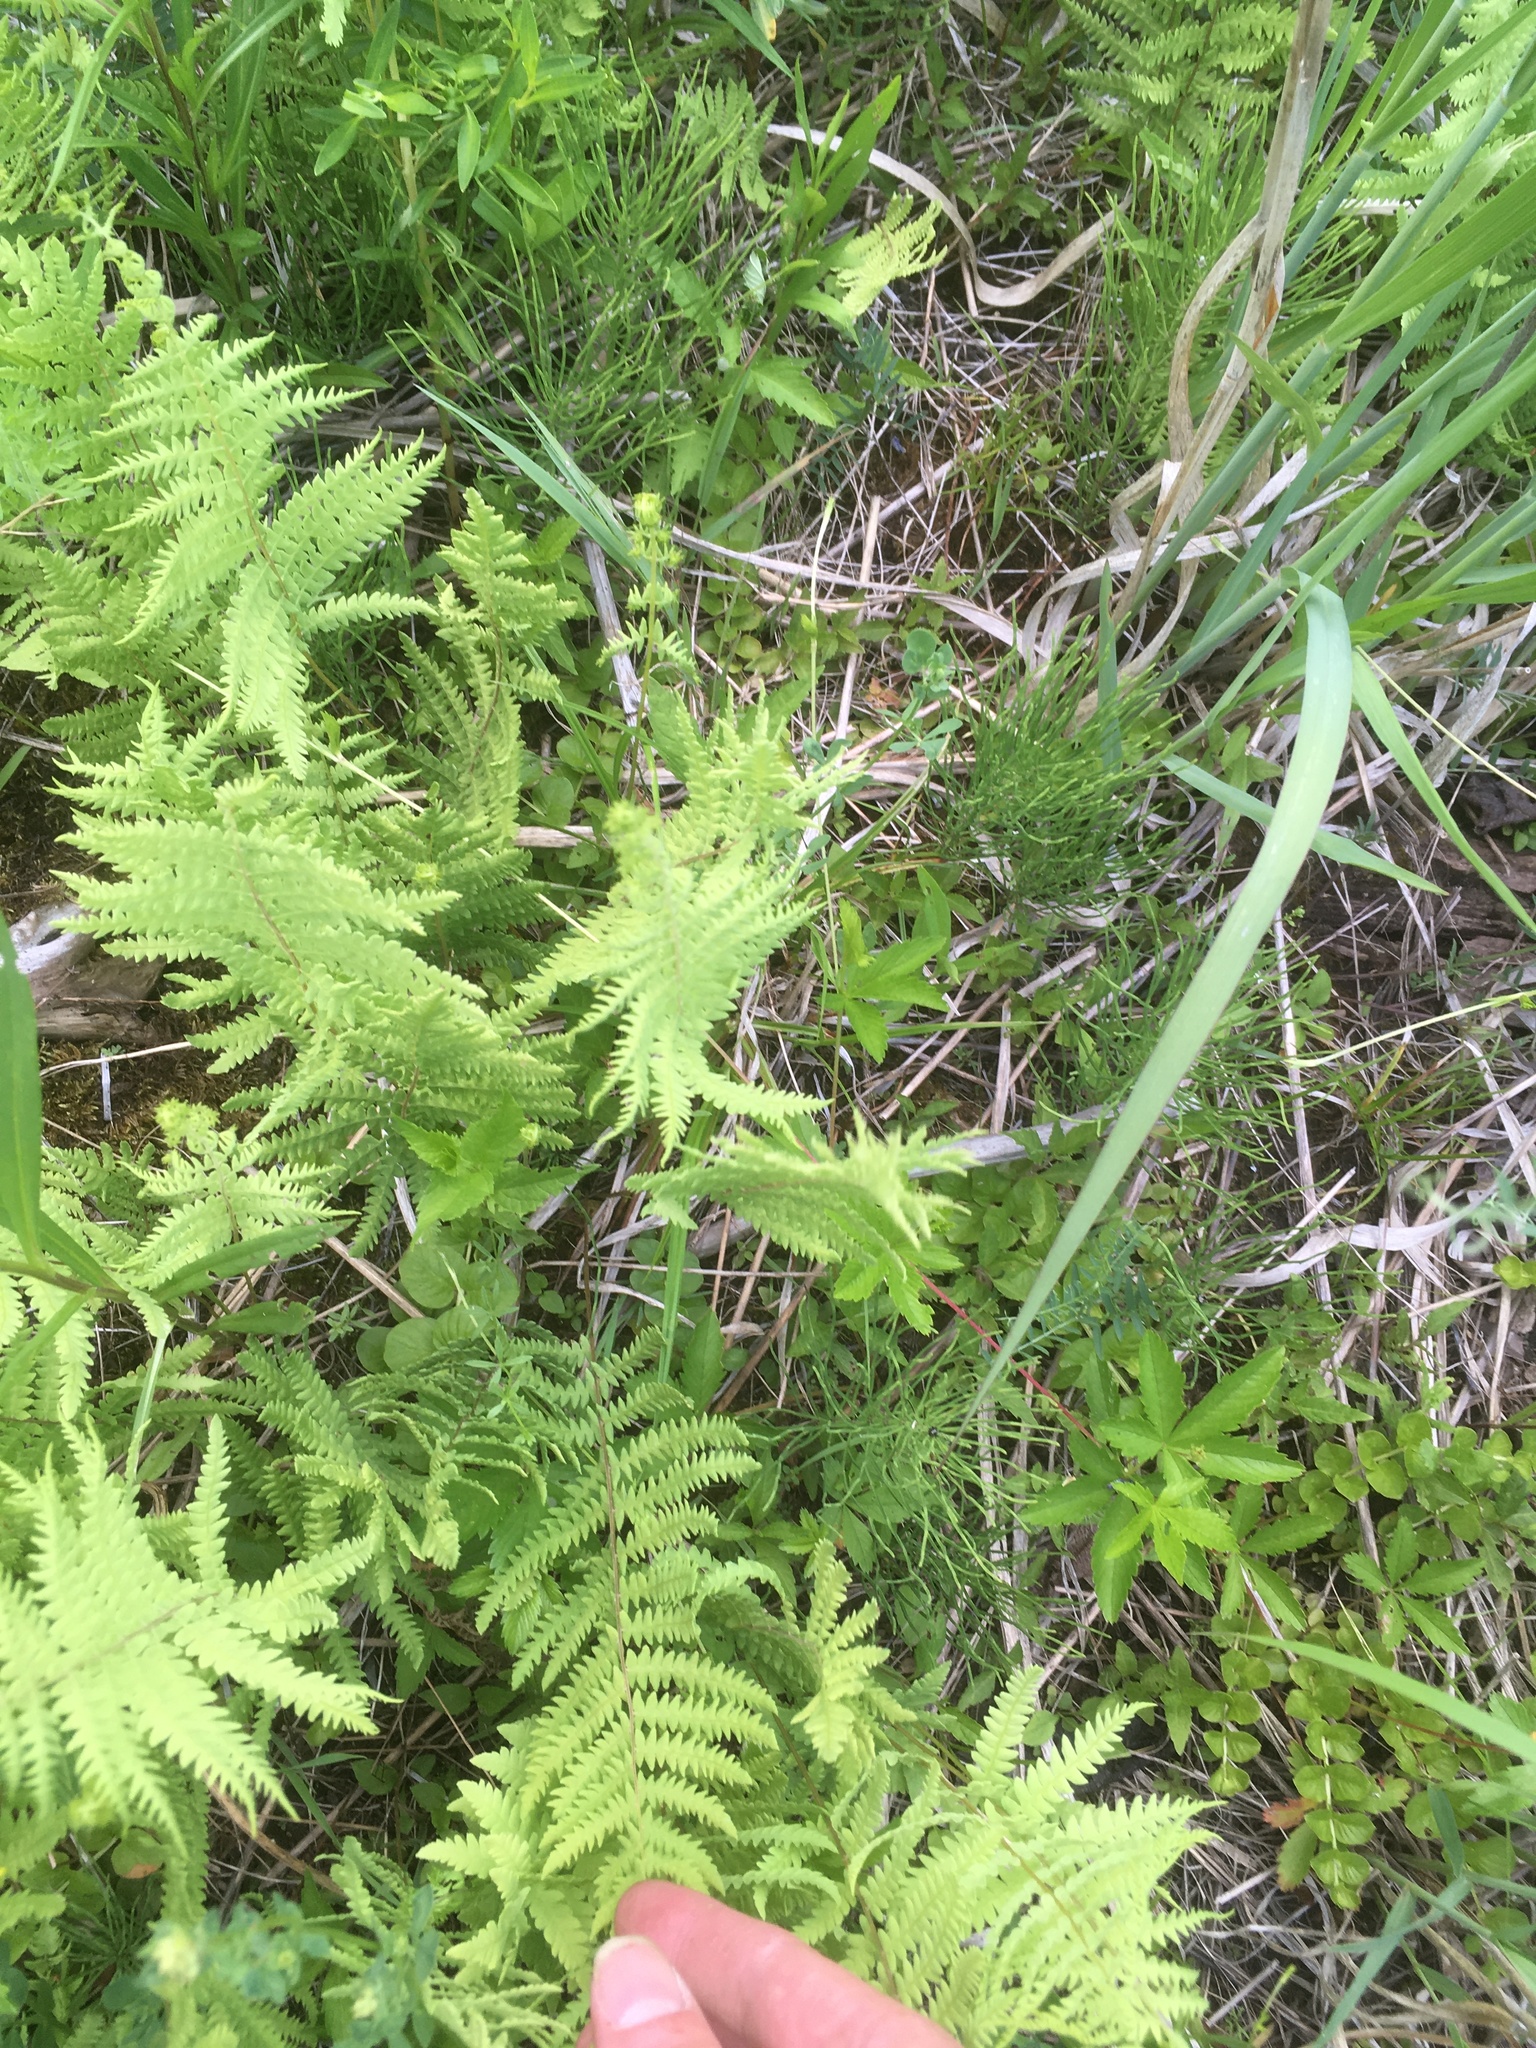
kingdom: Plantae
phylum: Tracheophyta
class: Polypodiopsida
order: Polypodiales
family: Thelypteridaceae
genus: Thelypteris
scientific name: Thelypteris palustris
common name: Marsh fern
